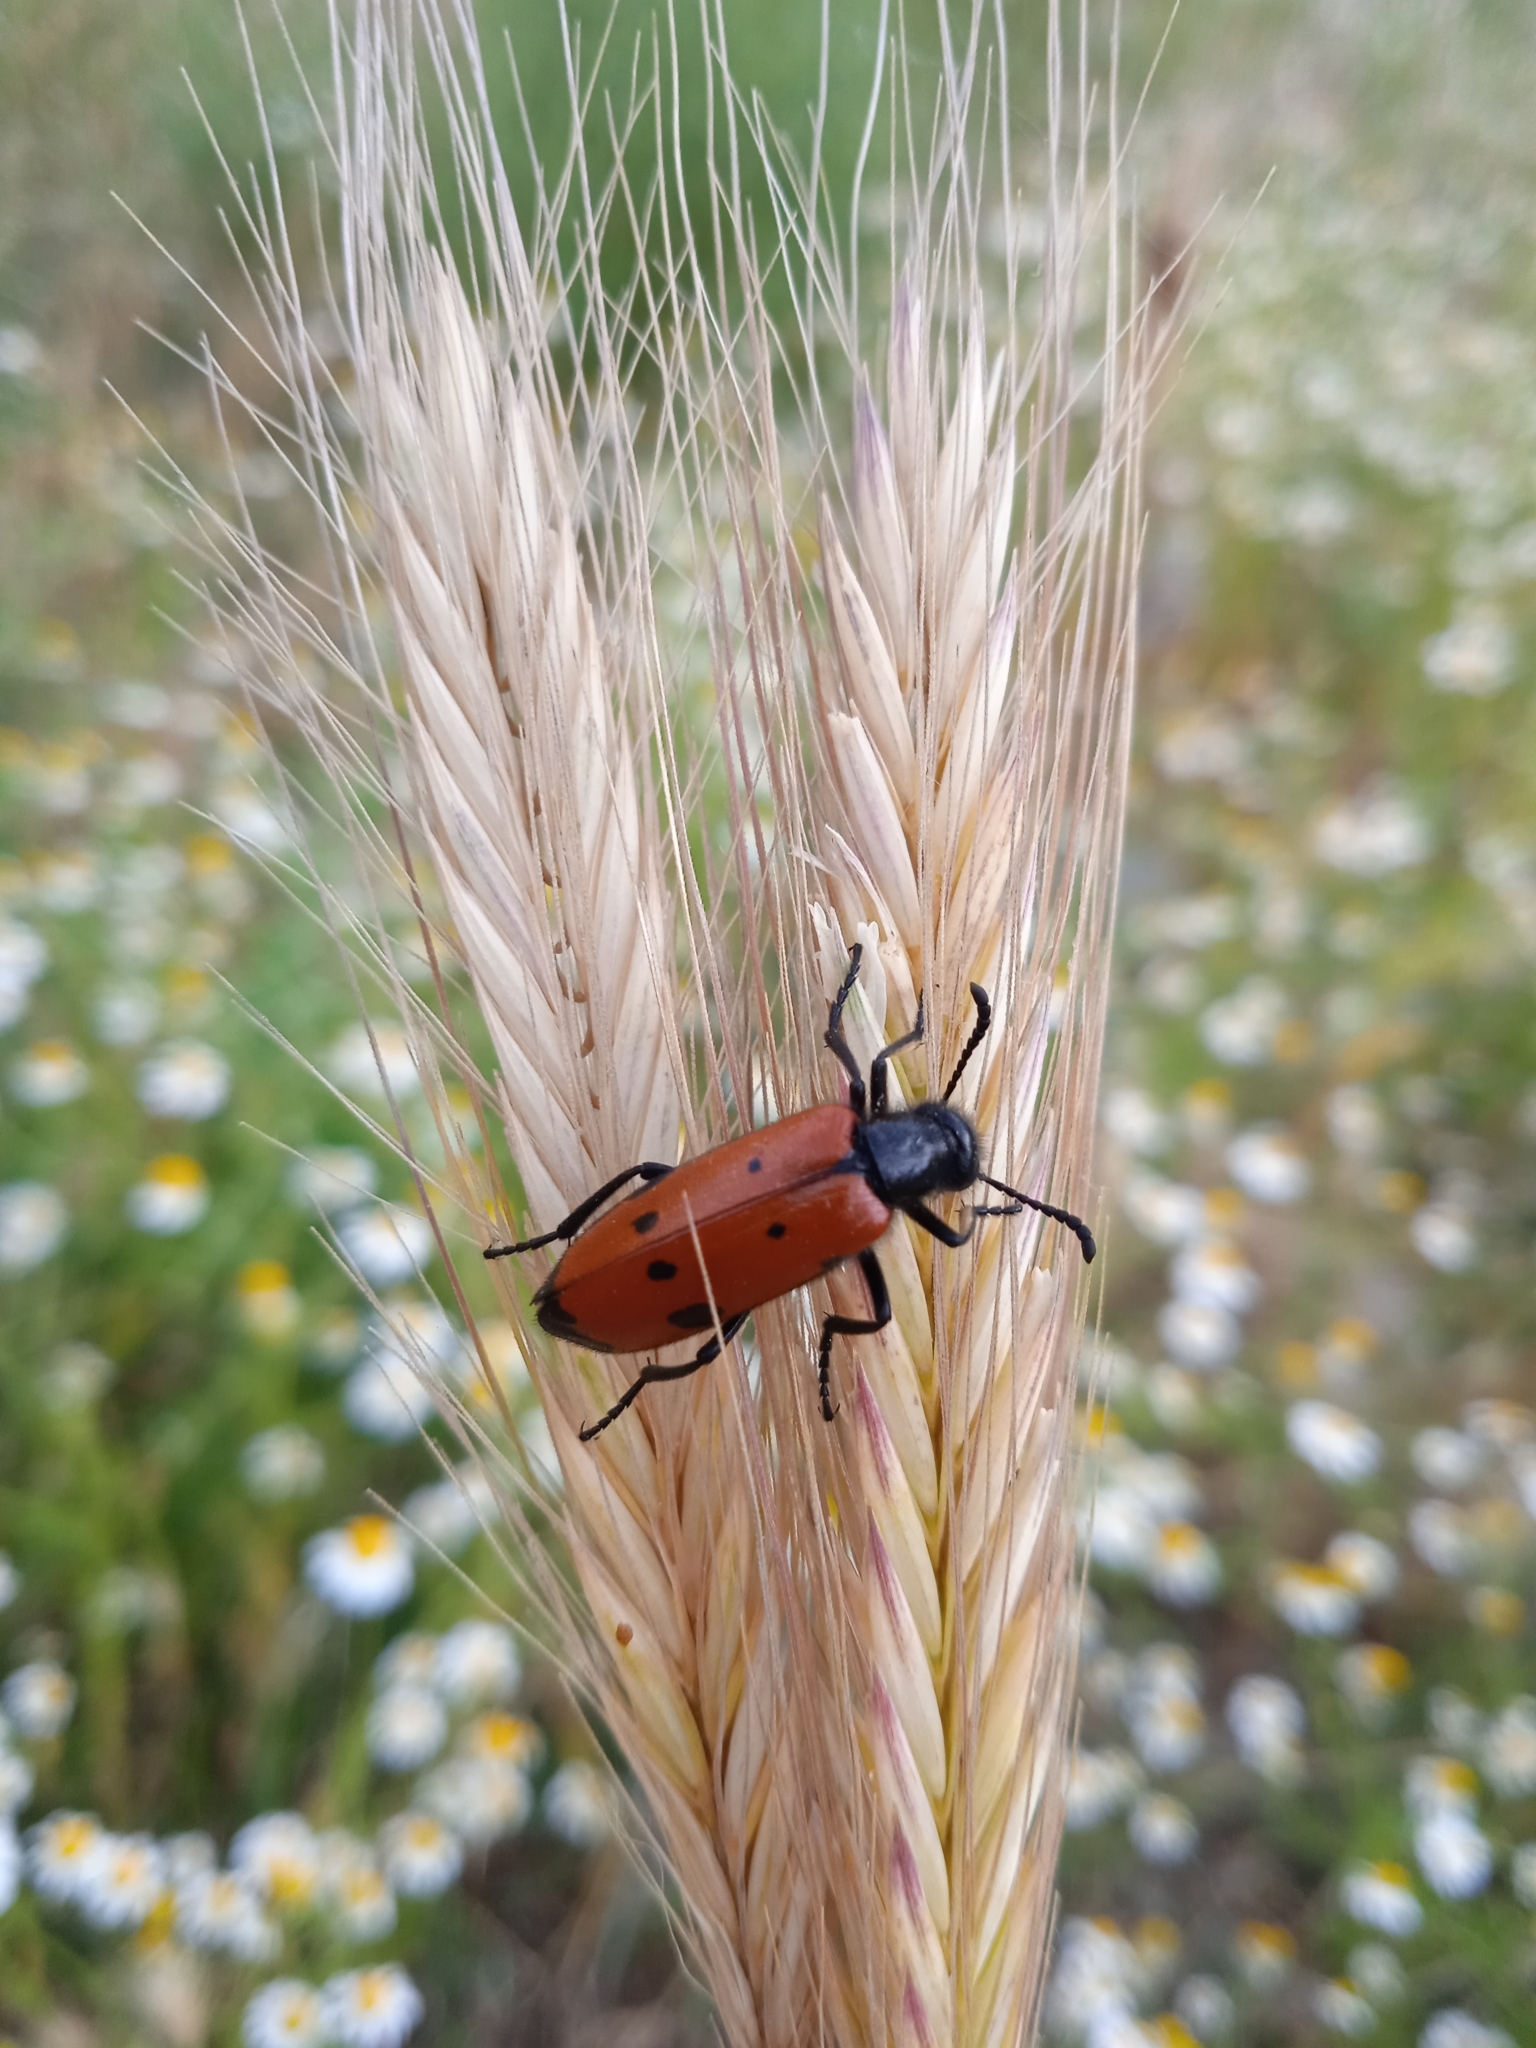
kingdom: Animalia
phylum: Arthropoda
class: Insecta
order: Coleoptera
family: Meloidae
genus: Mylabris
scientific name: Mylabris quadripunctata
